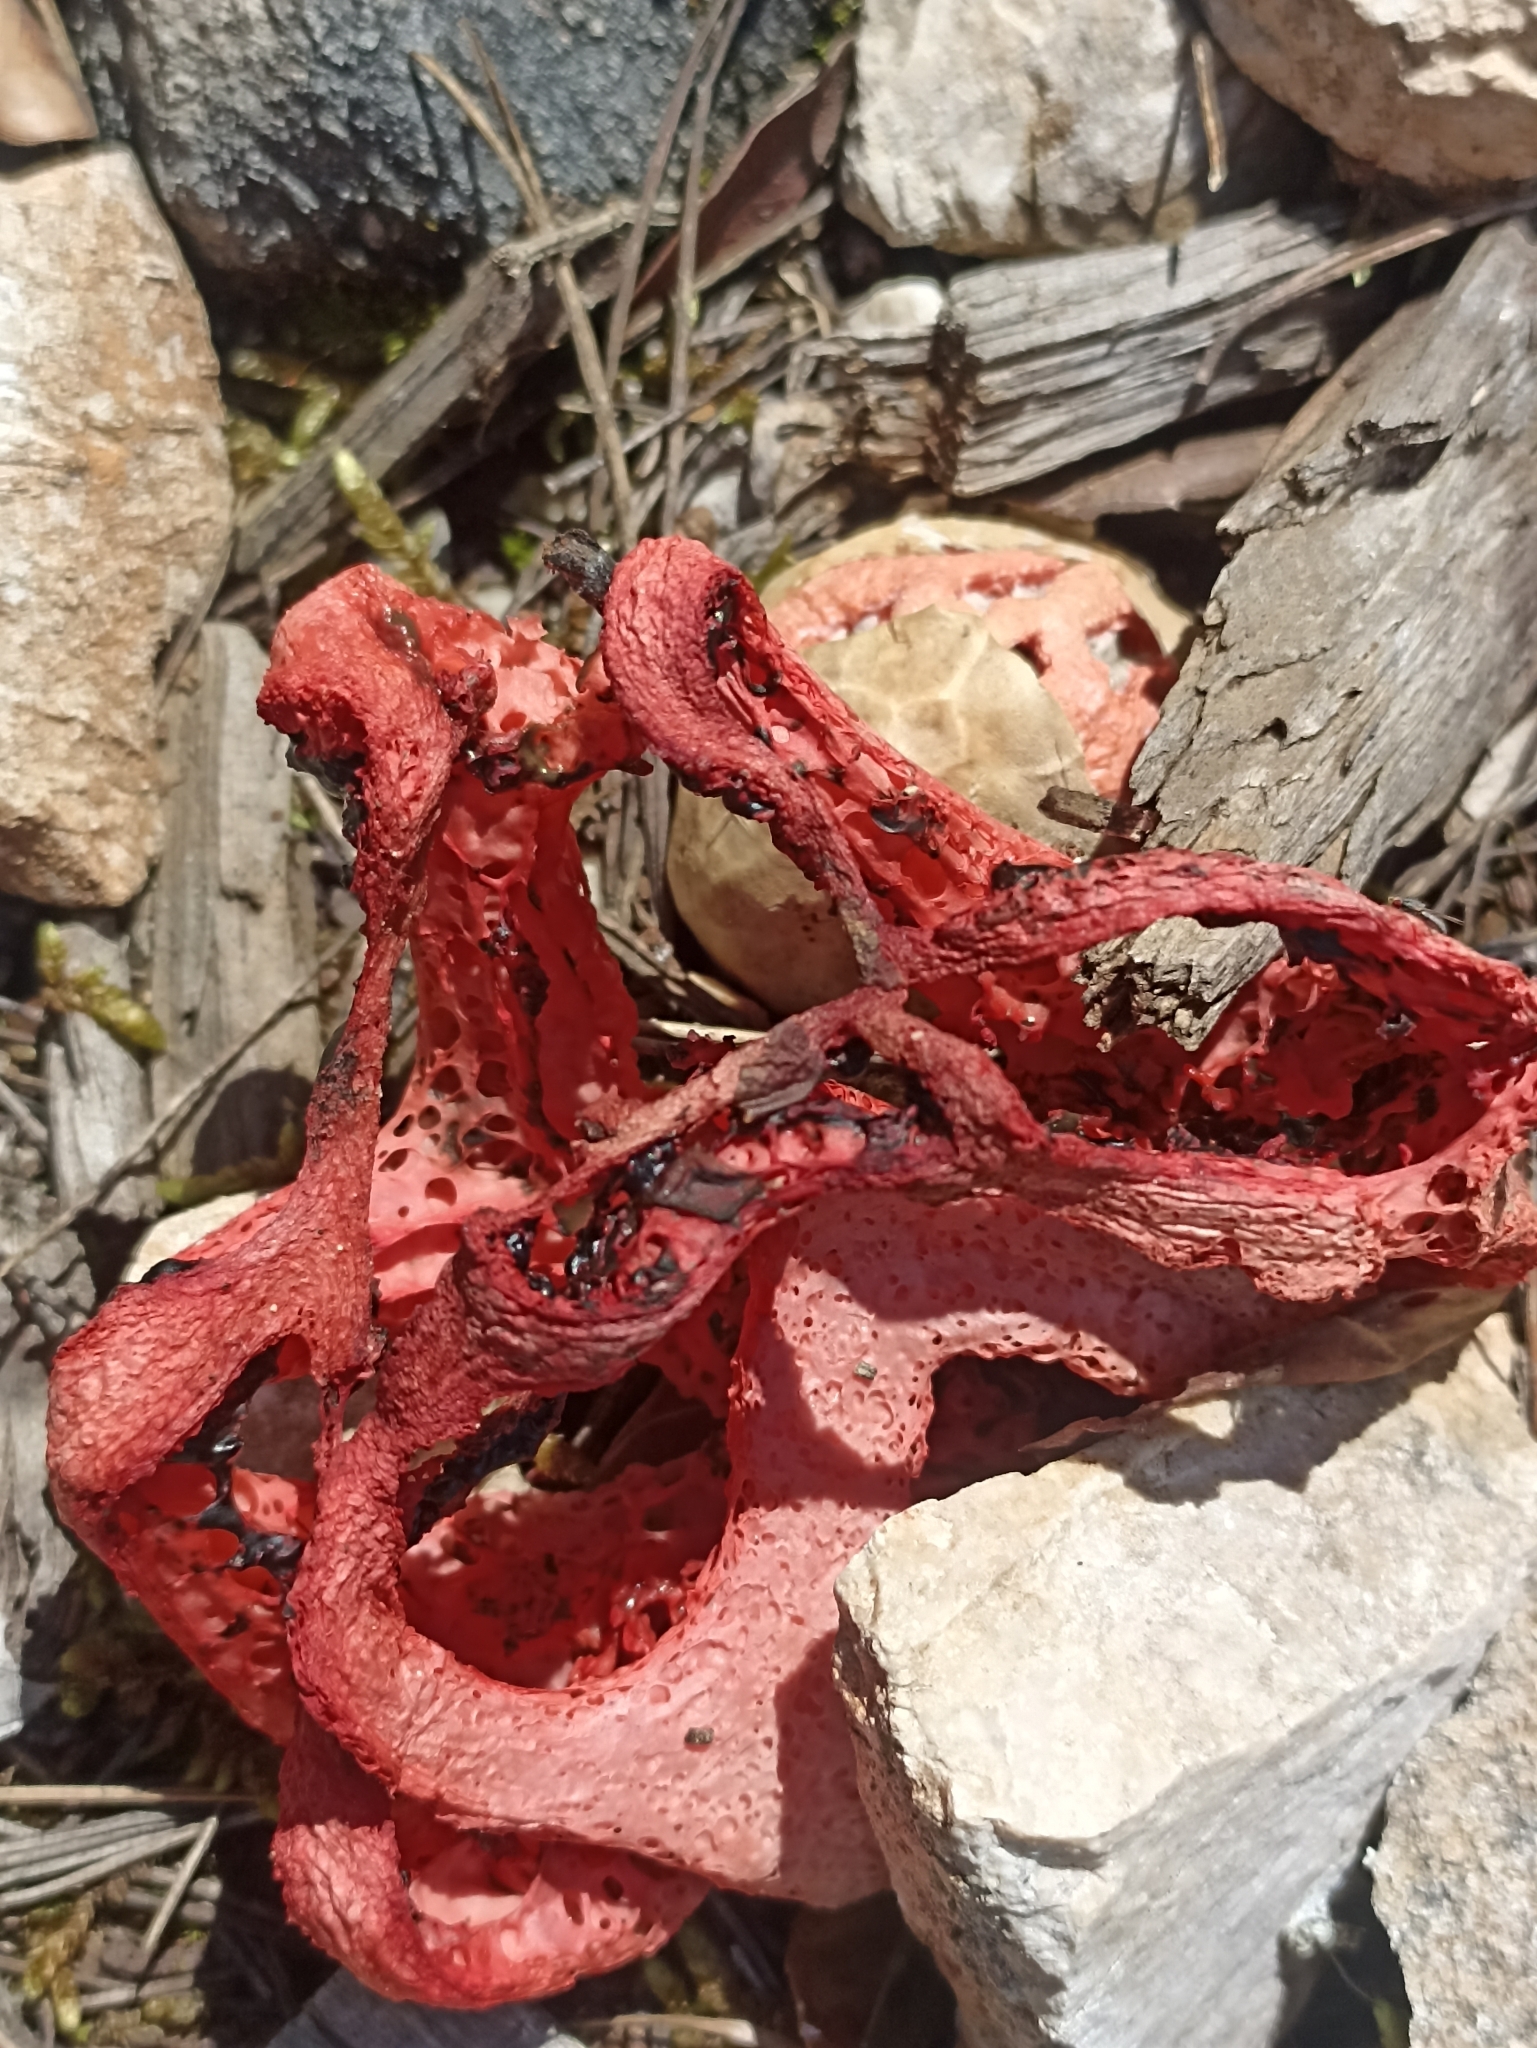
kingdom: Fungi
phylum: Basidiomycota
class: Agaricomycetes
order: Phallales
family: Phallaceae
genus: Clathrus
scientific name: Clathrus ruber
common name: Red cage
